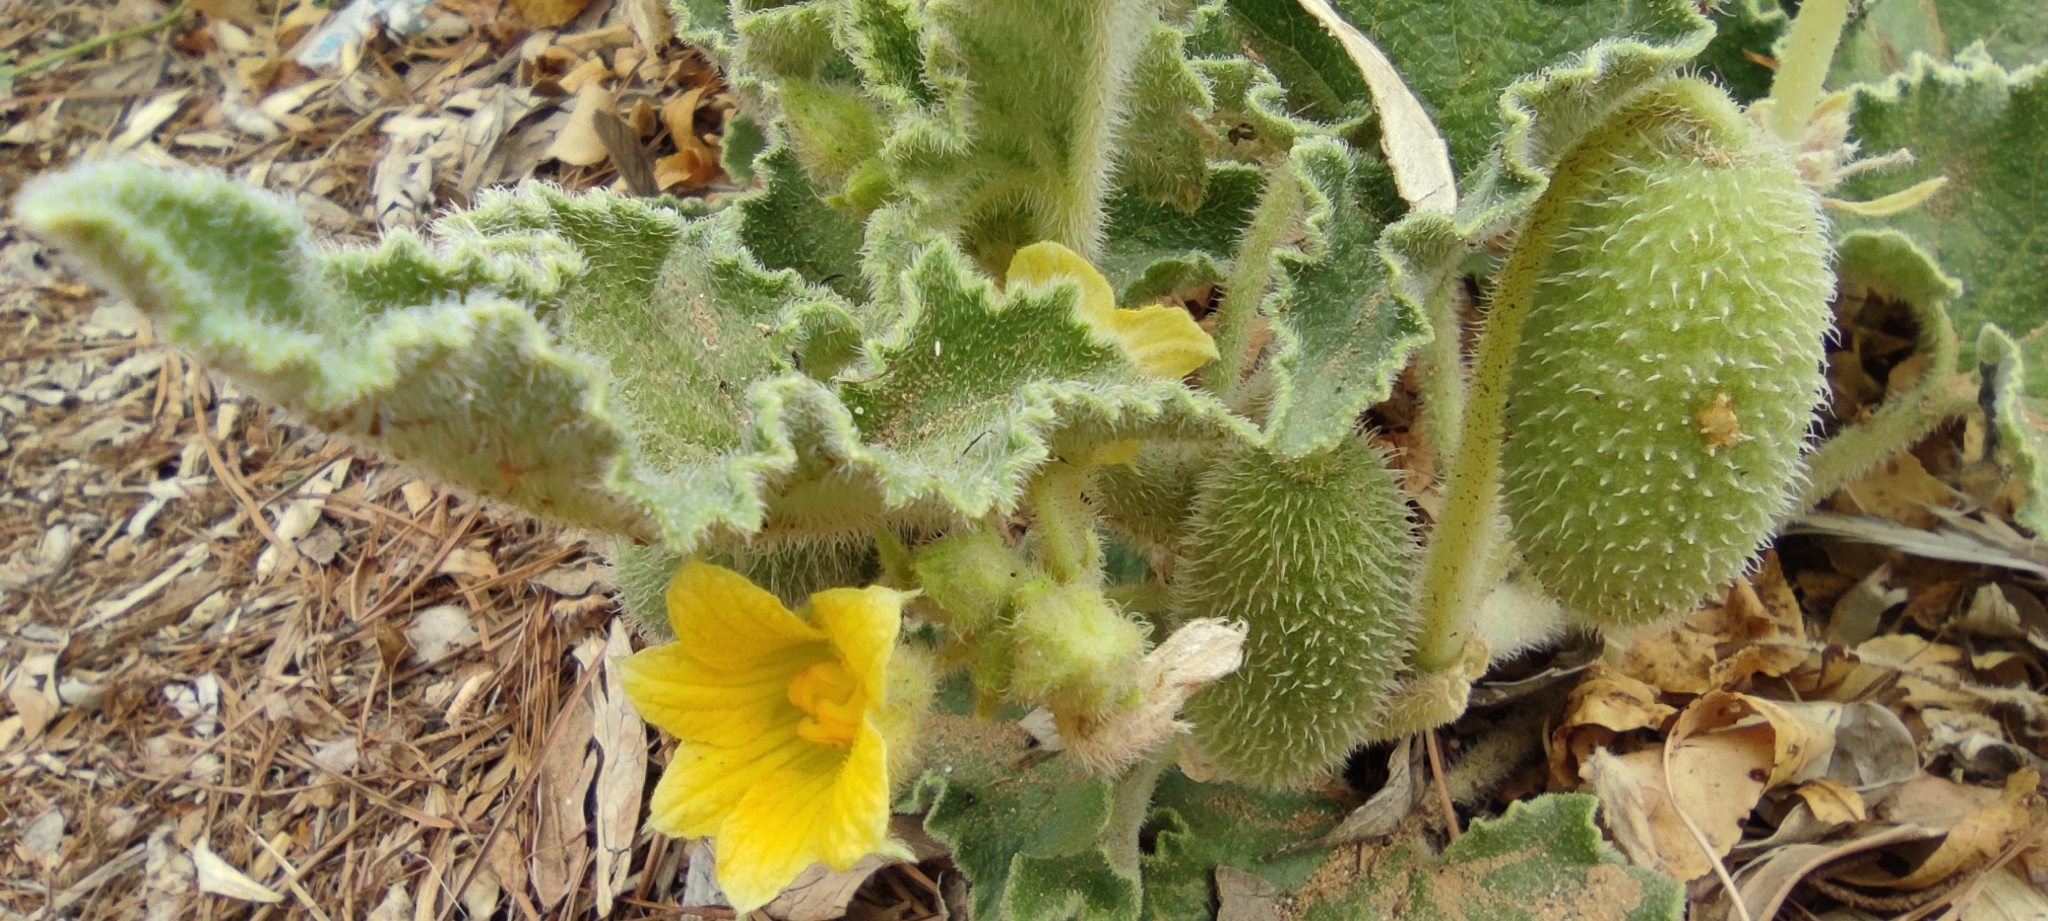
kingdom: Plantae
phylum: Tracheophyta
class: Magnoliopsida
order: Cucurbitales
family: Cucurbitaceae
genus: Ecballium
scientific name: Ecballium elaterium
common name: Squirting cucumber
